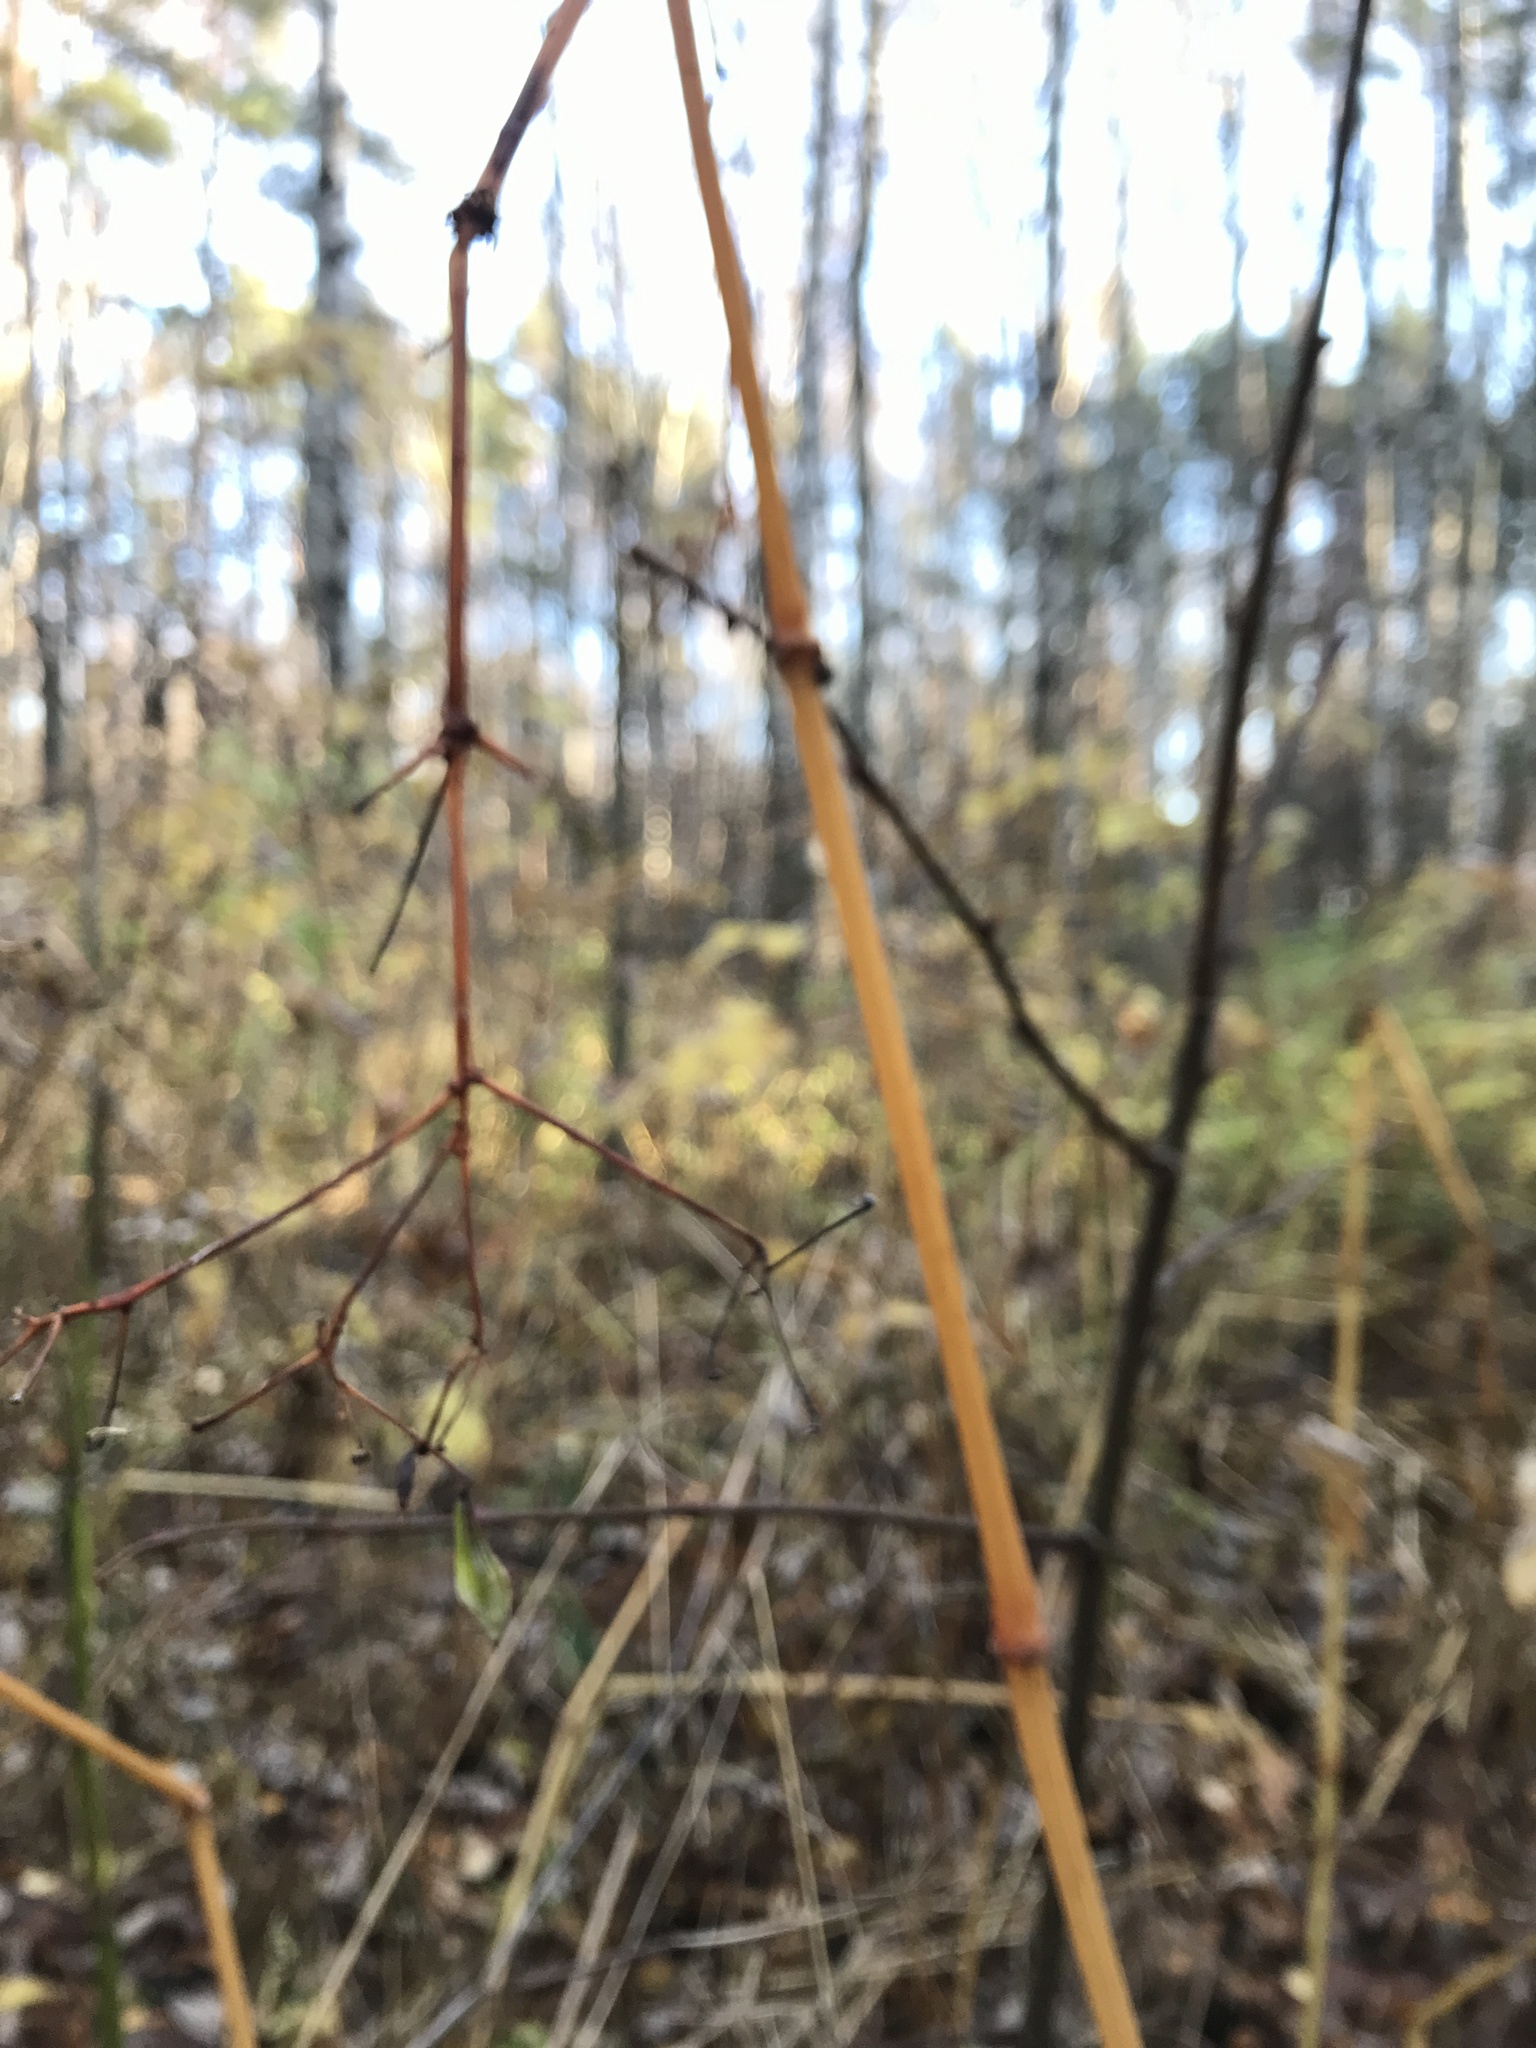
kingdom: Plantae
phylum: Tracheophyta
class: Magnoliopsida
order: Ericales
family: Balsaminaceae
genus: Impatiens
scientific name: Impatiens glandulifera
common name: Himalayan balsam
